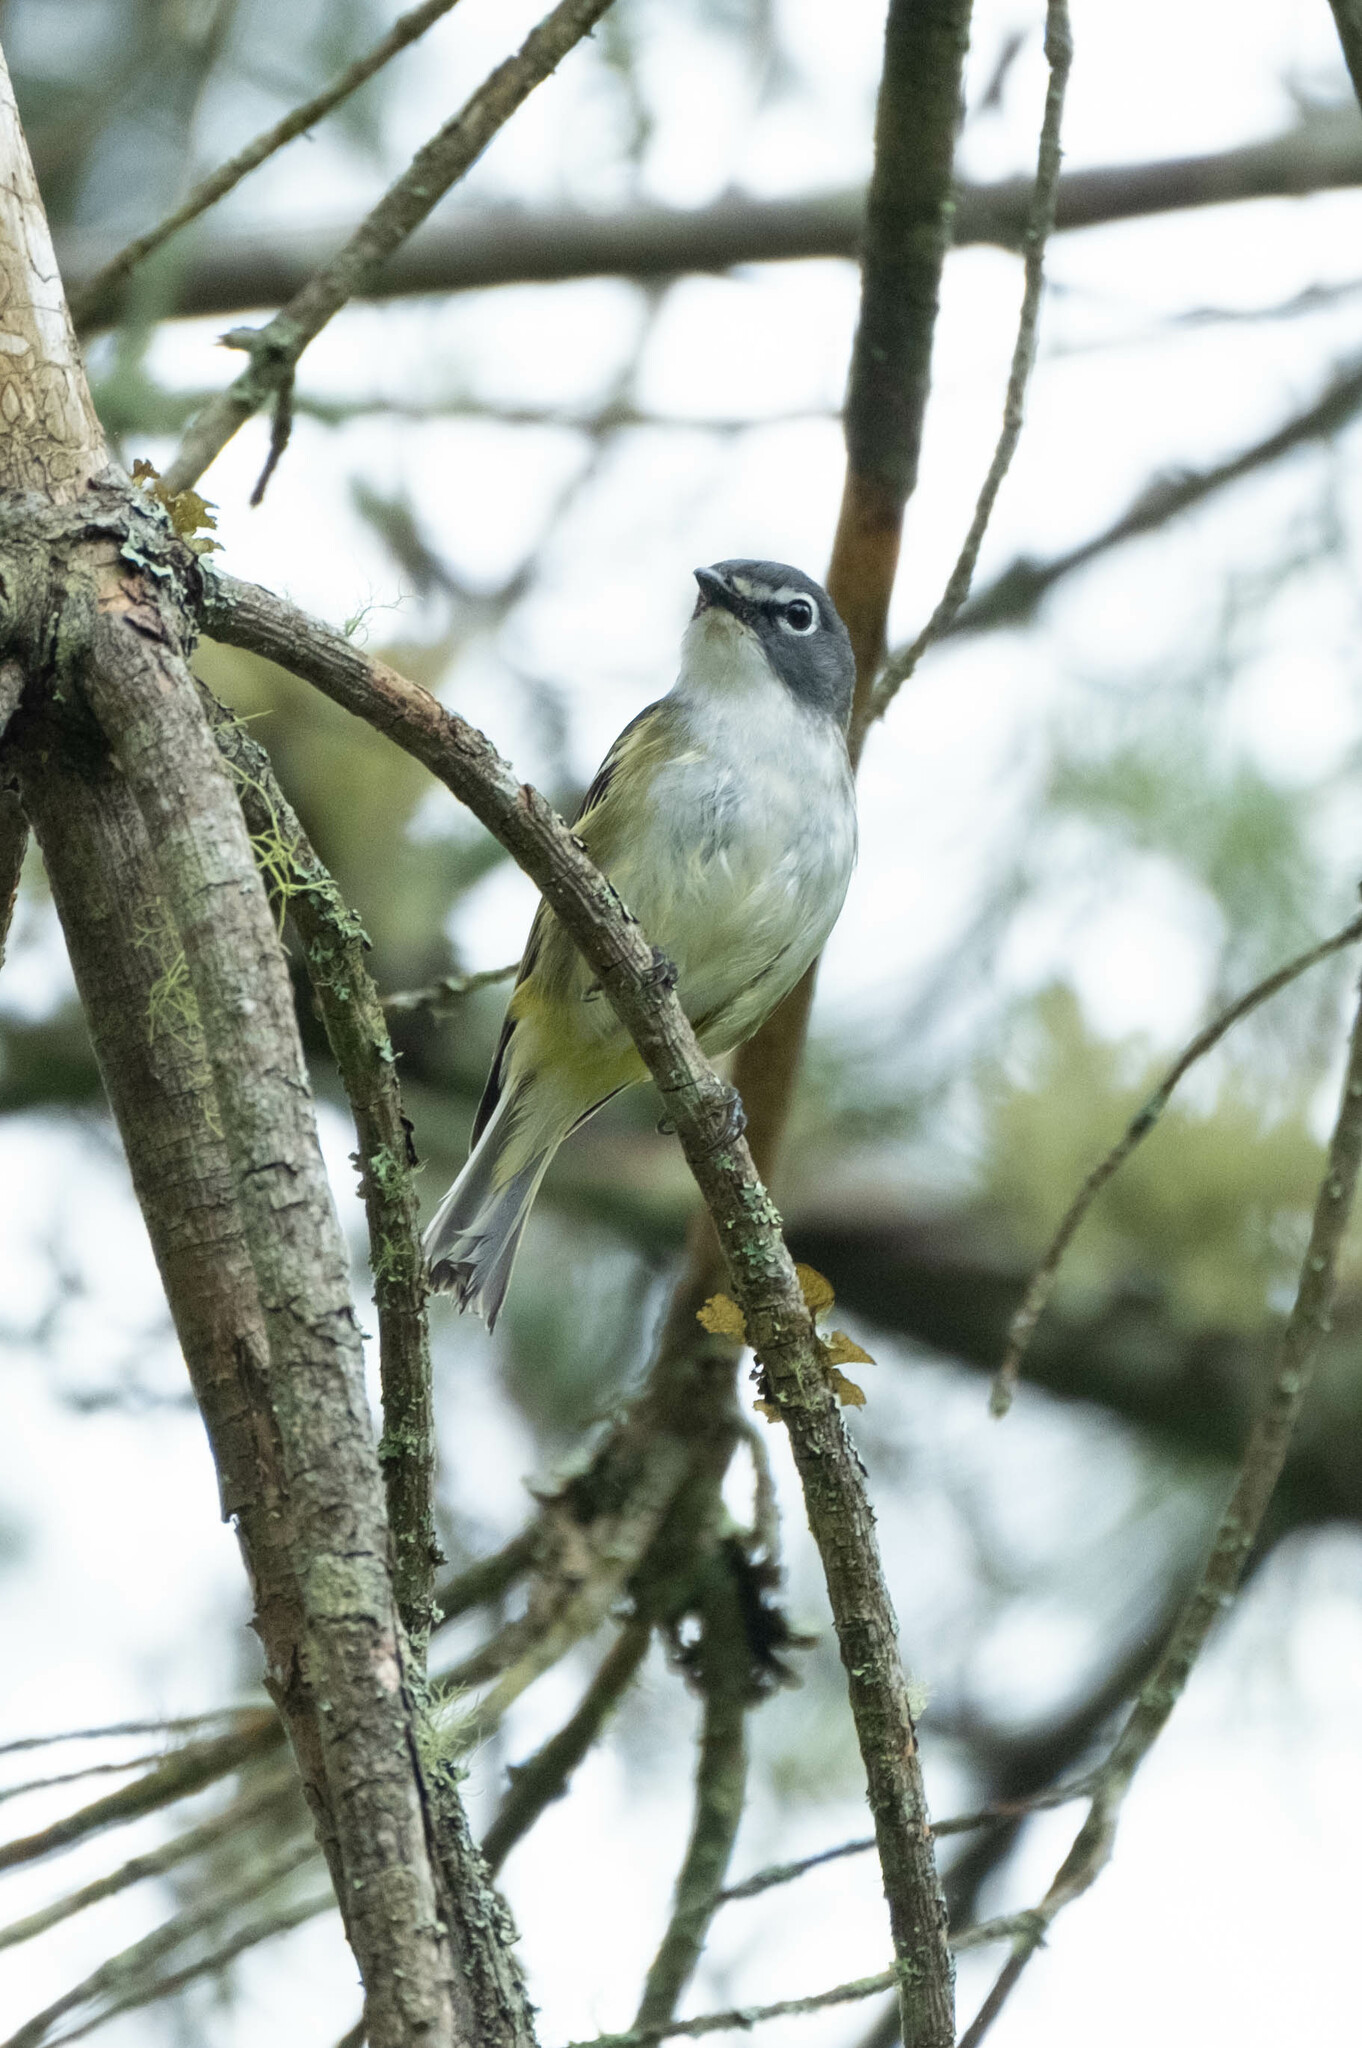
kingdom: Animalia
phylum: Chordata
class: Aves
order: Passeriformes
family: Vireonidae
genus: Vireo
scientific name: Vireo solitarius
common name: Blue-headed vireo
